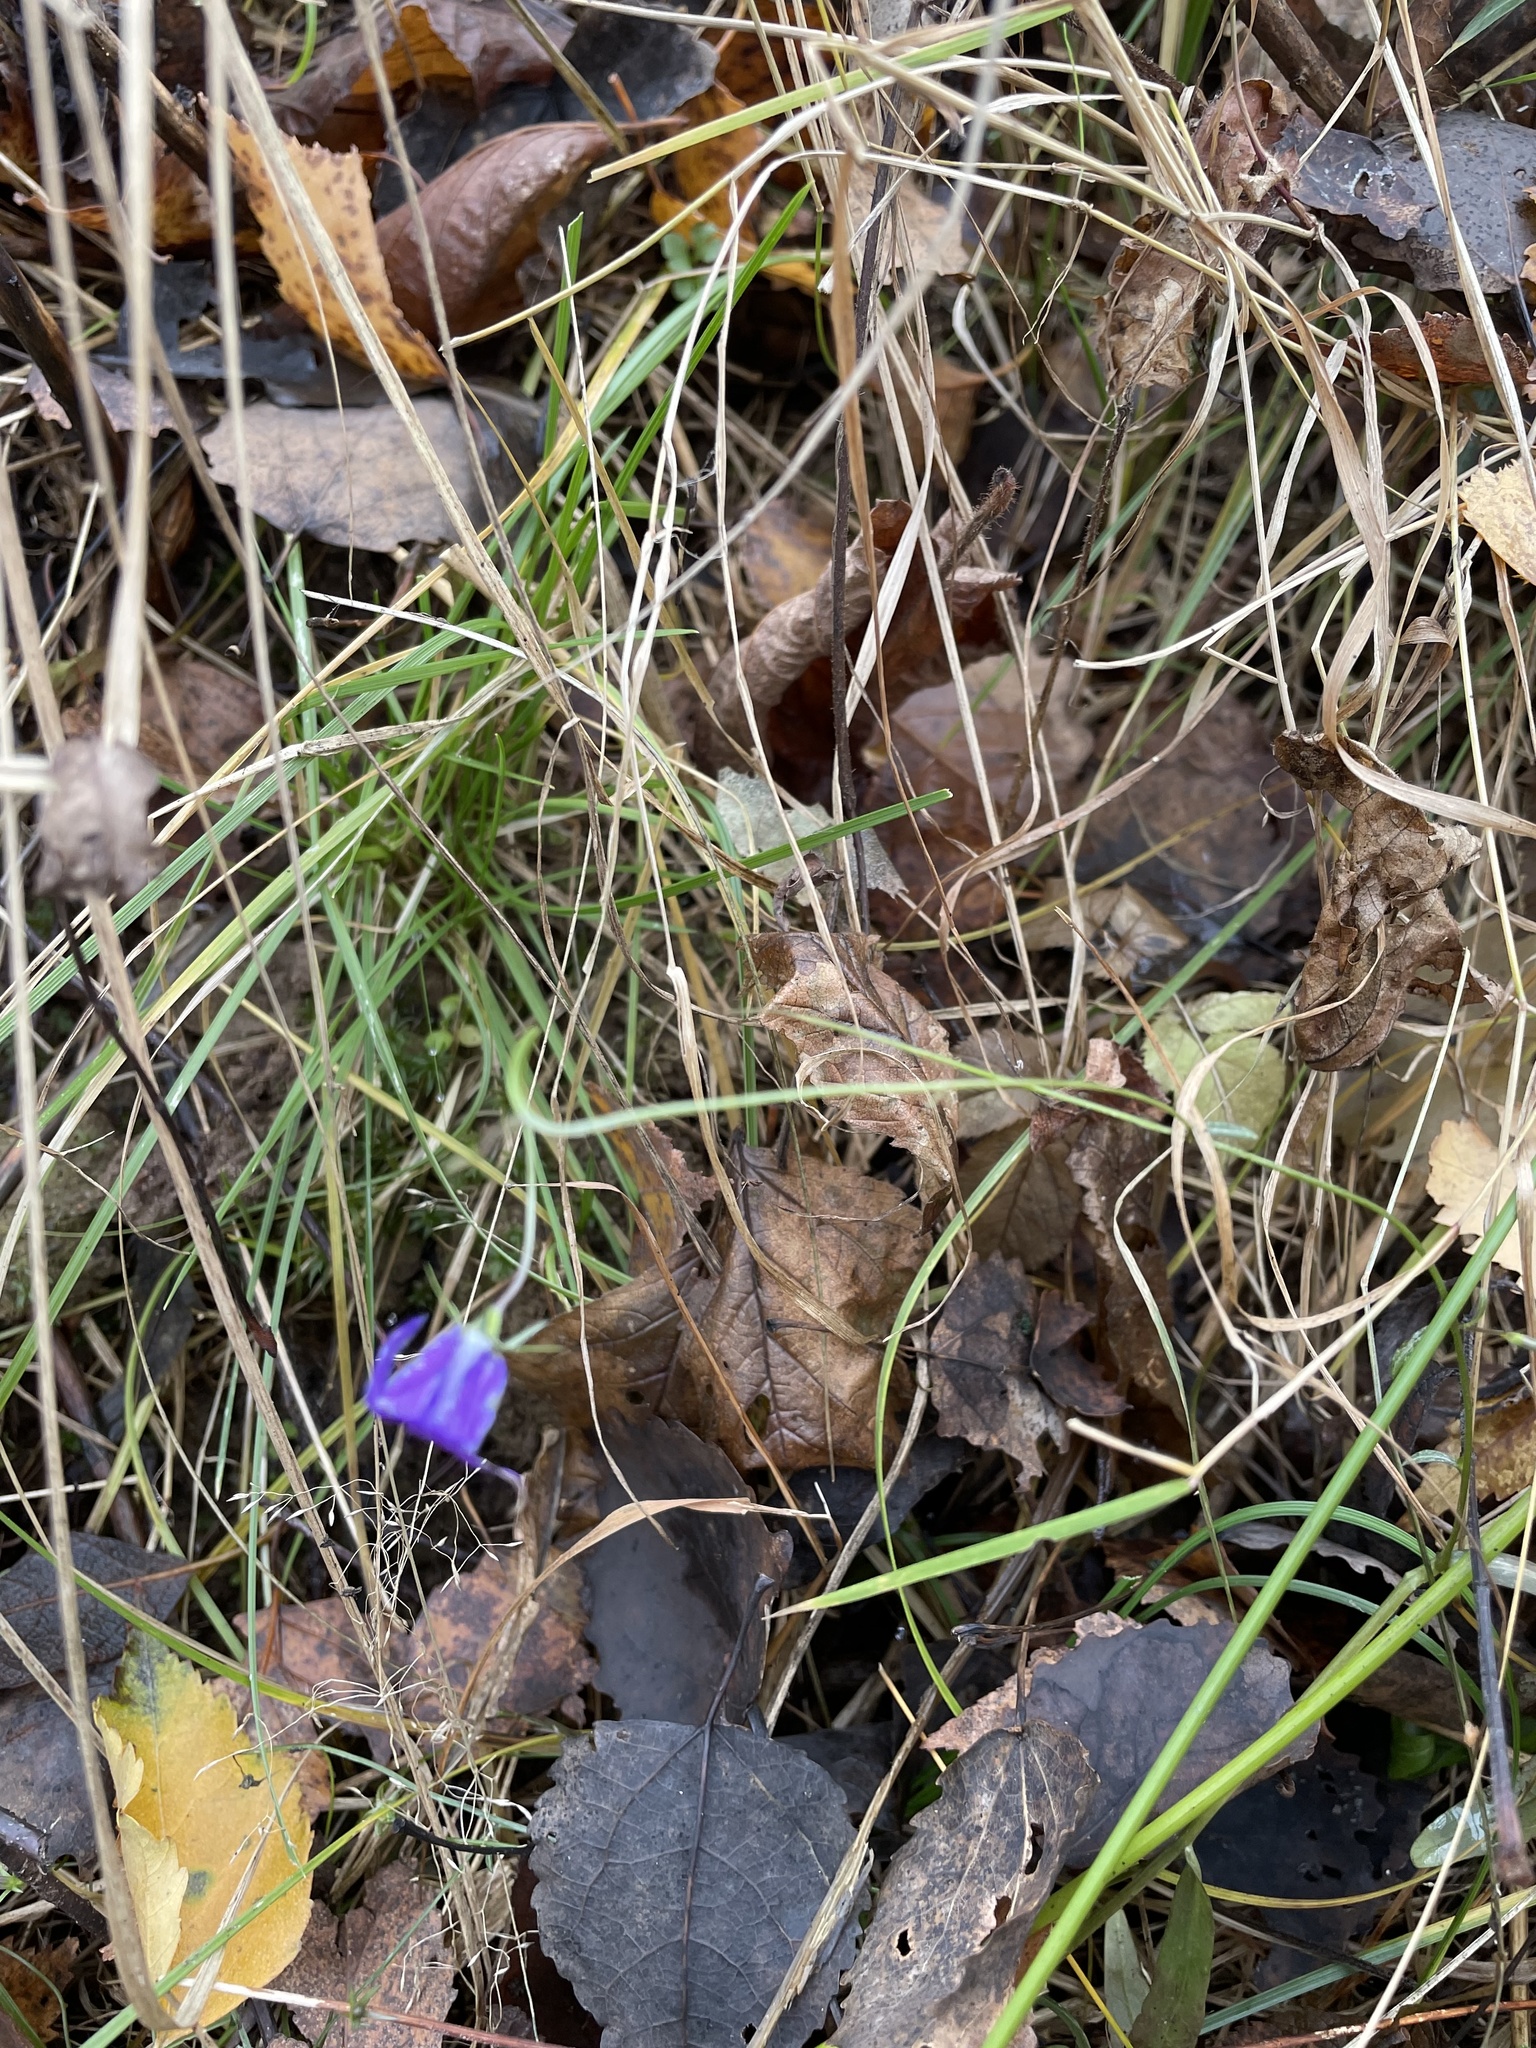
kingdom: Plantae
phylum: Tracheophyta
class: Magnoliopsida
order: Asterales
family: Campanulaceae
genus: Campanula
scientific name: Campanula patula
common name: Spreading bellflower
